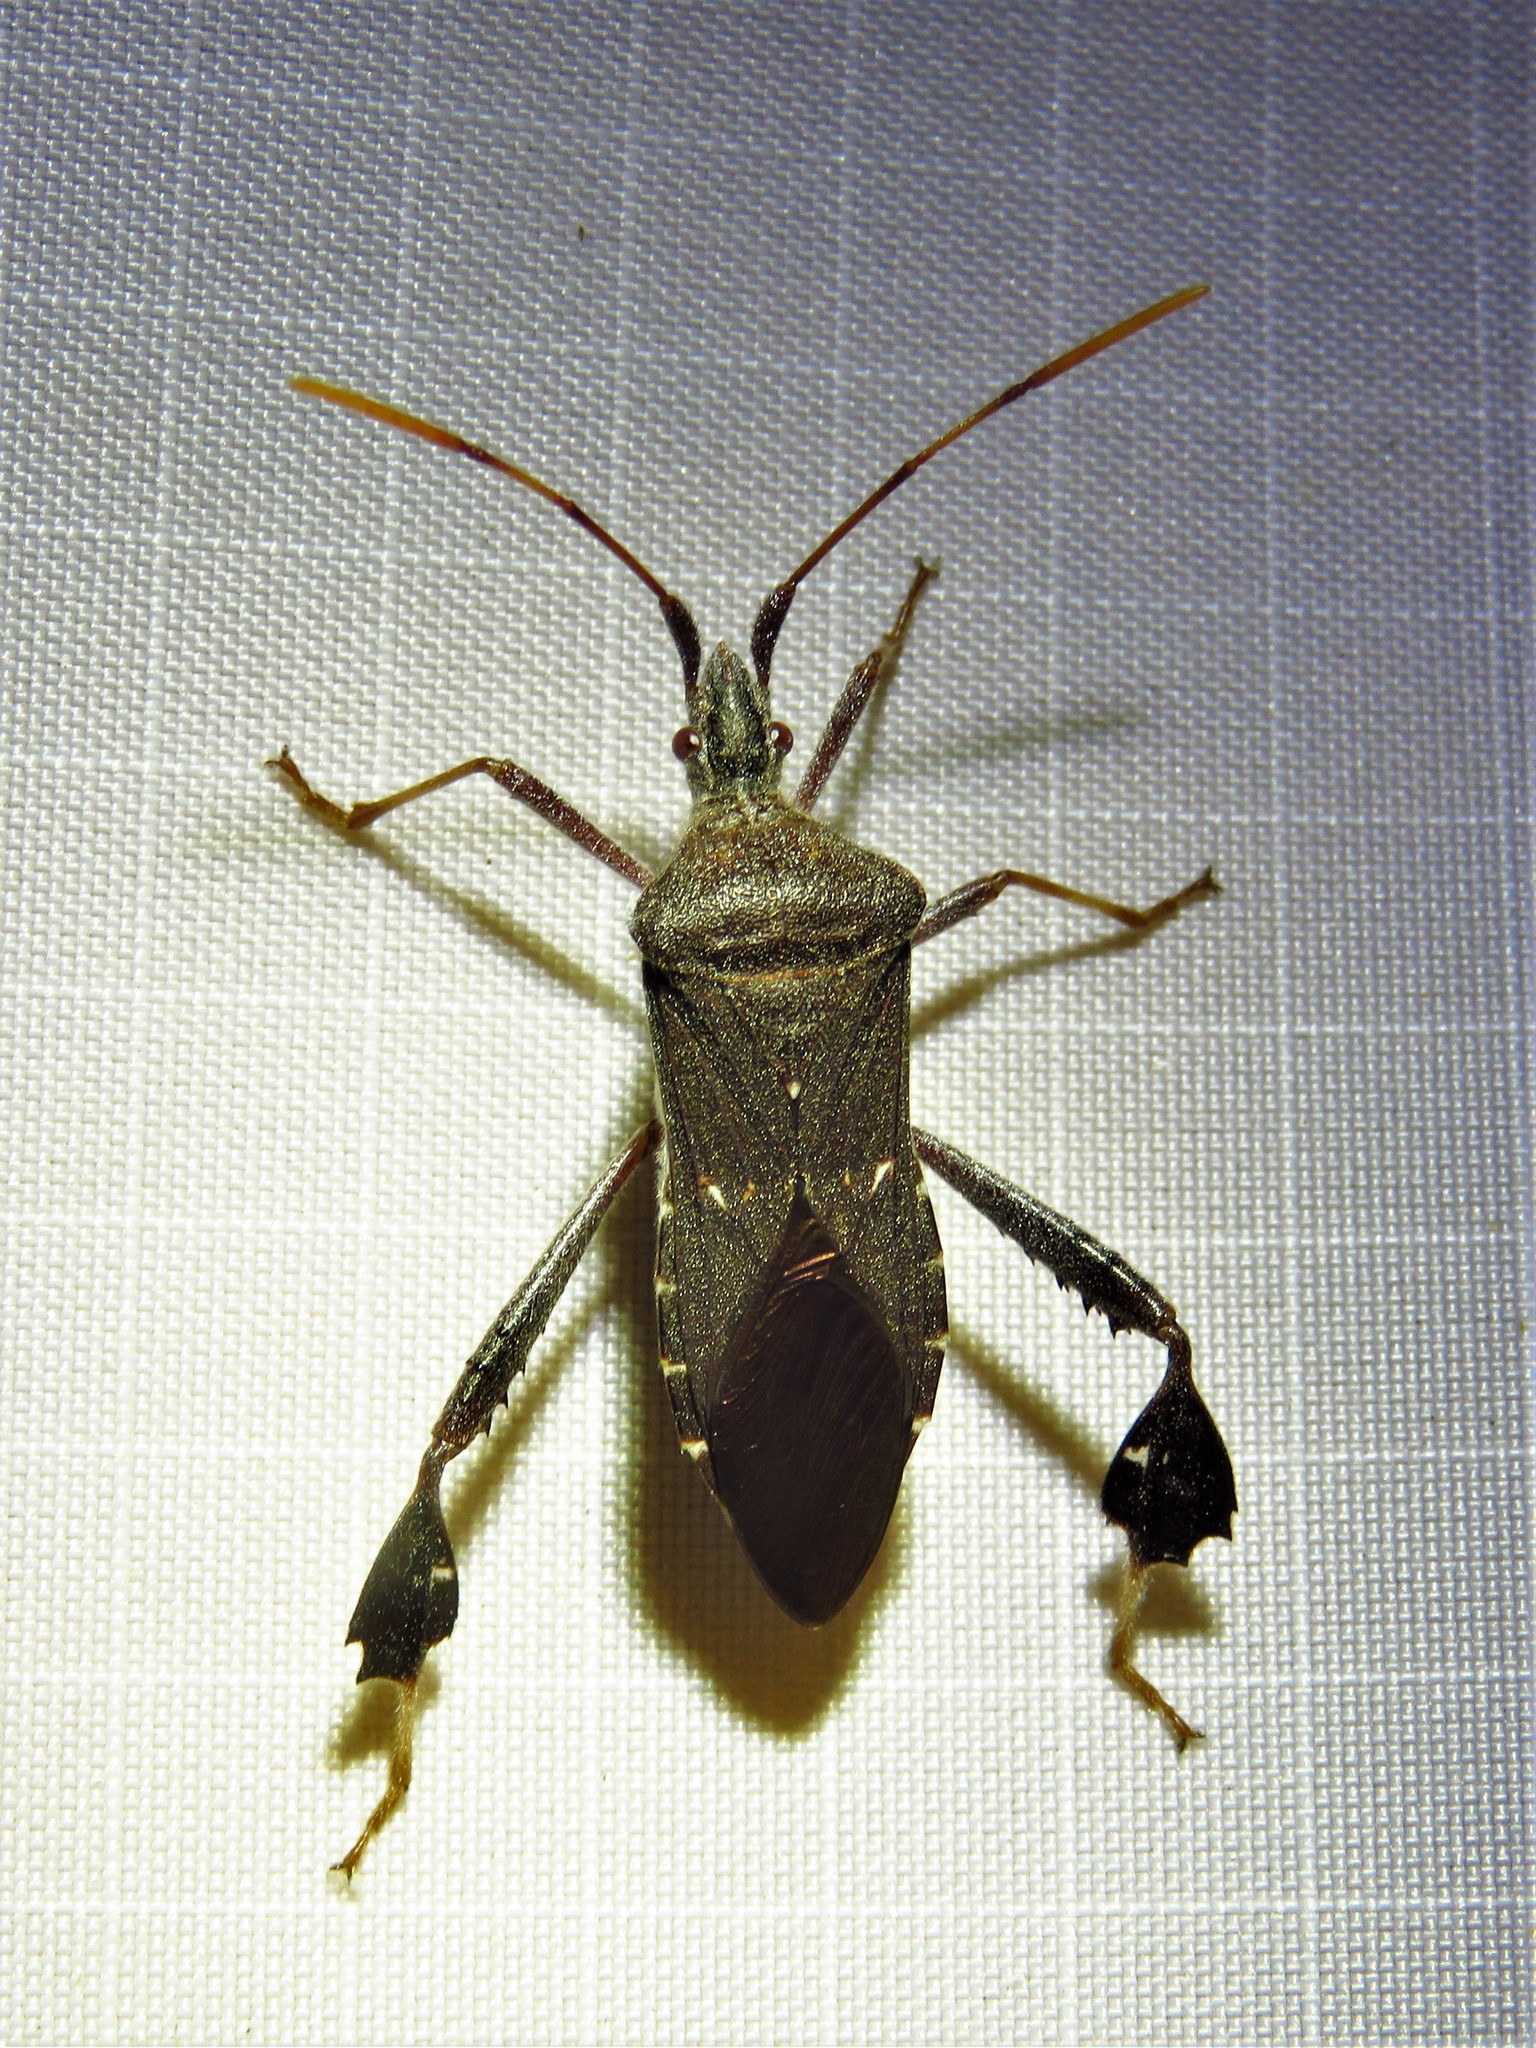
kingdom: Animalia
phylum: Arthropoda
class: Insecta
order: Hemiptera
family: Coreidae
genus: Leptoglossus
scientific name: Leptoglossus oppositus
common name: Northern leaf-footed bug
